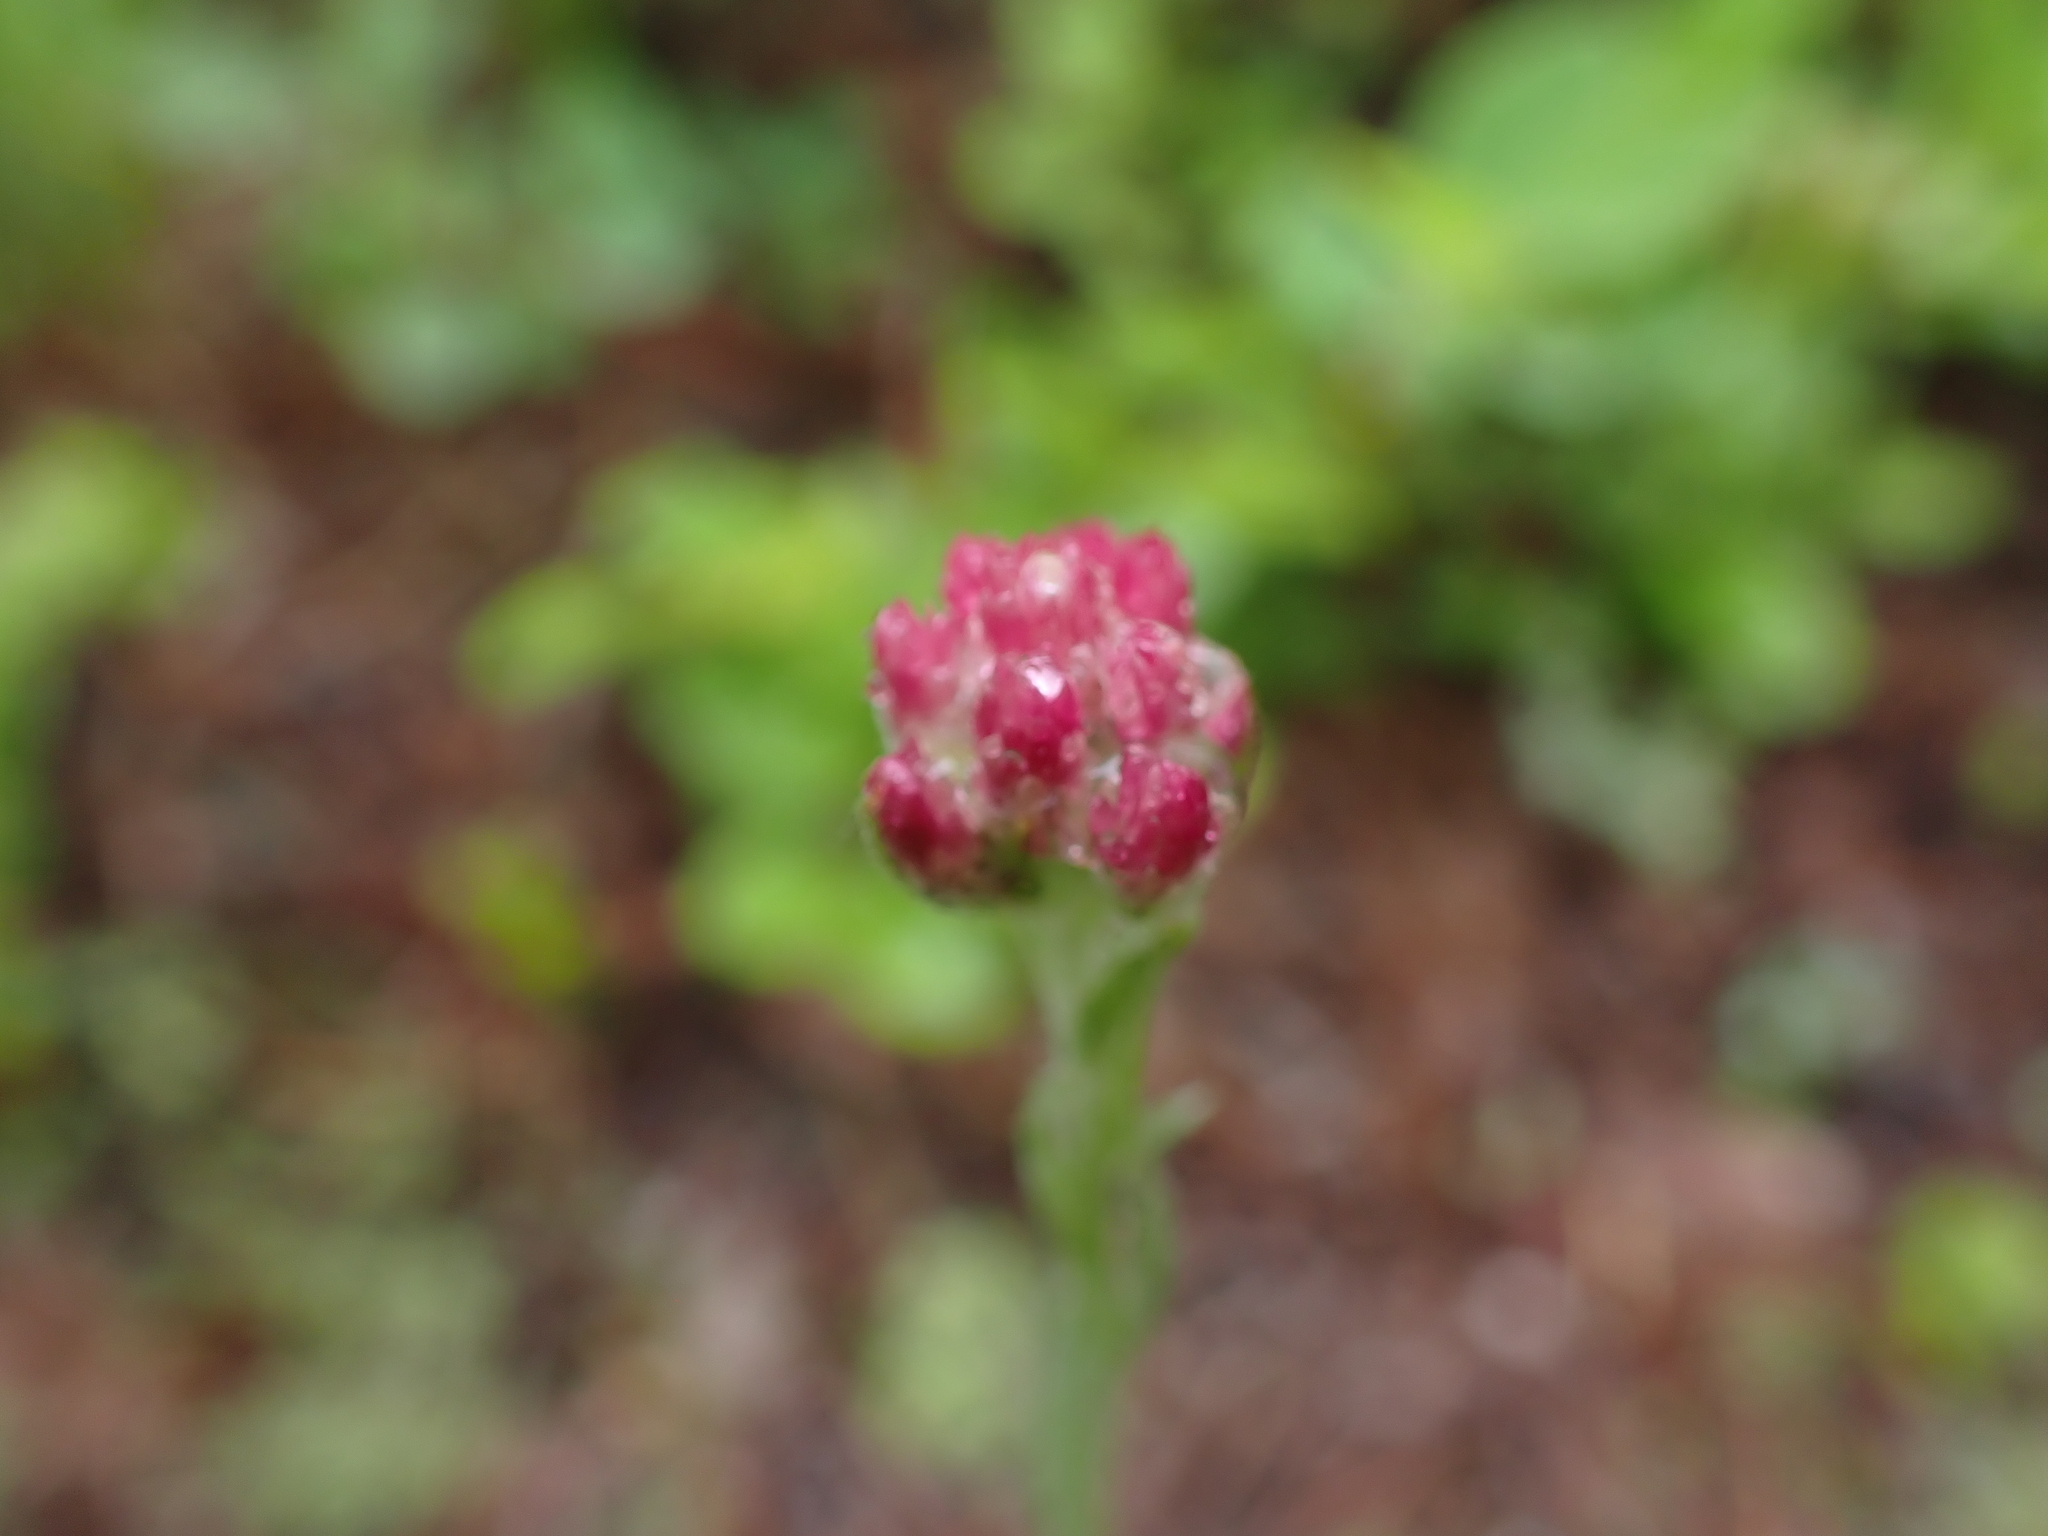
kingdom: Plantae
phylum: Tracheophyta
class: Magnoliopsida
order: Asterales
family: Asteraceae
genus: Antennaria
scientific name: Antennaria rosea
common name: Rosy pussytoes
